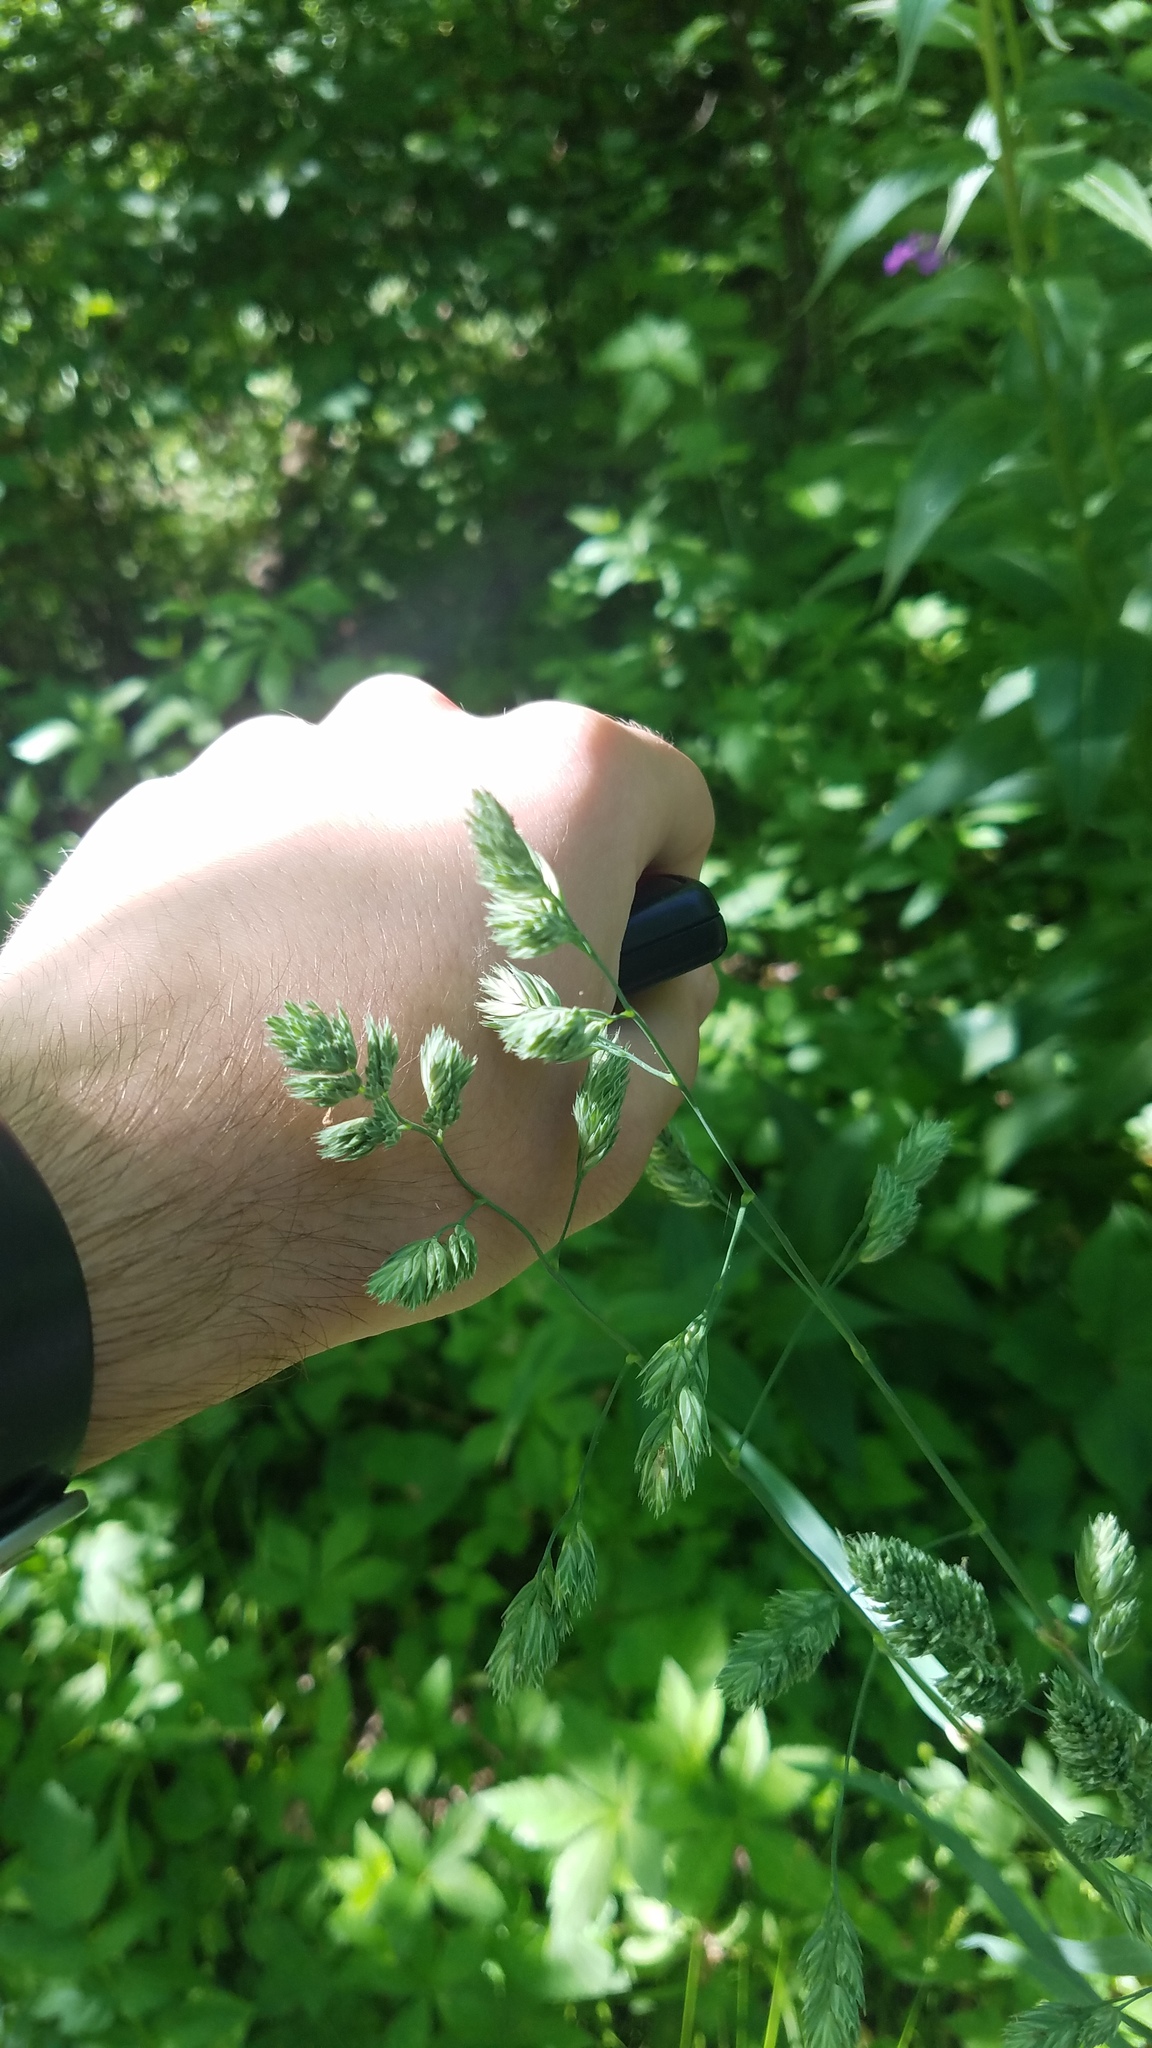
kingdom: Plantae
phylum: Tracheophyta
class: Liliopsida
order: Poales
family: Poaceae
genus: Dactylis
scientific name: Dactylis glomerata
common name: Orchardgrass
